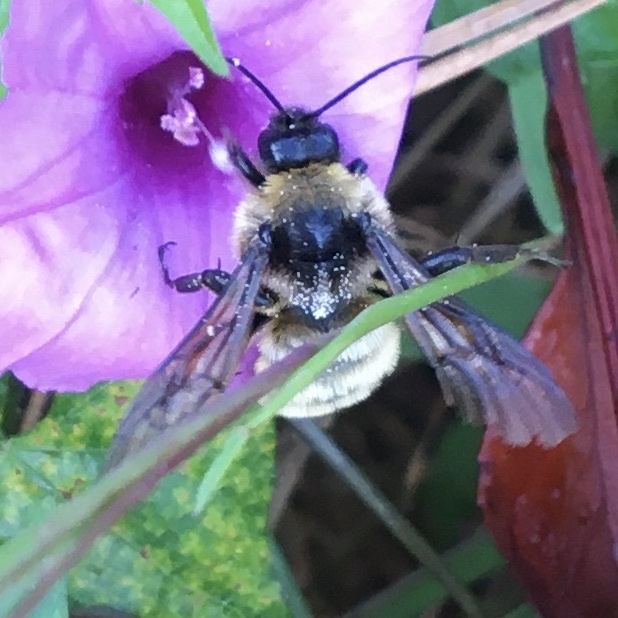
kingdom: Animalia
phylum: Arthropoda
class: Insecta
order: Hymenoptera
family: Apidae
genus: Bombus
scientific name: Bombus pensylvanicus
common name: Bumble bee
